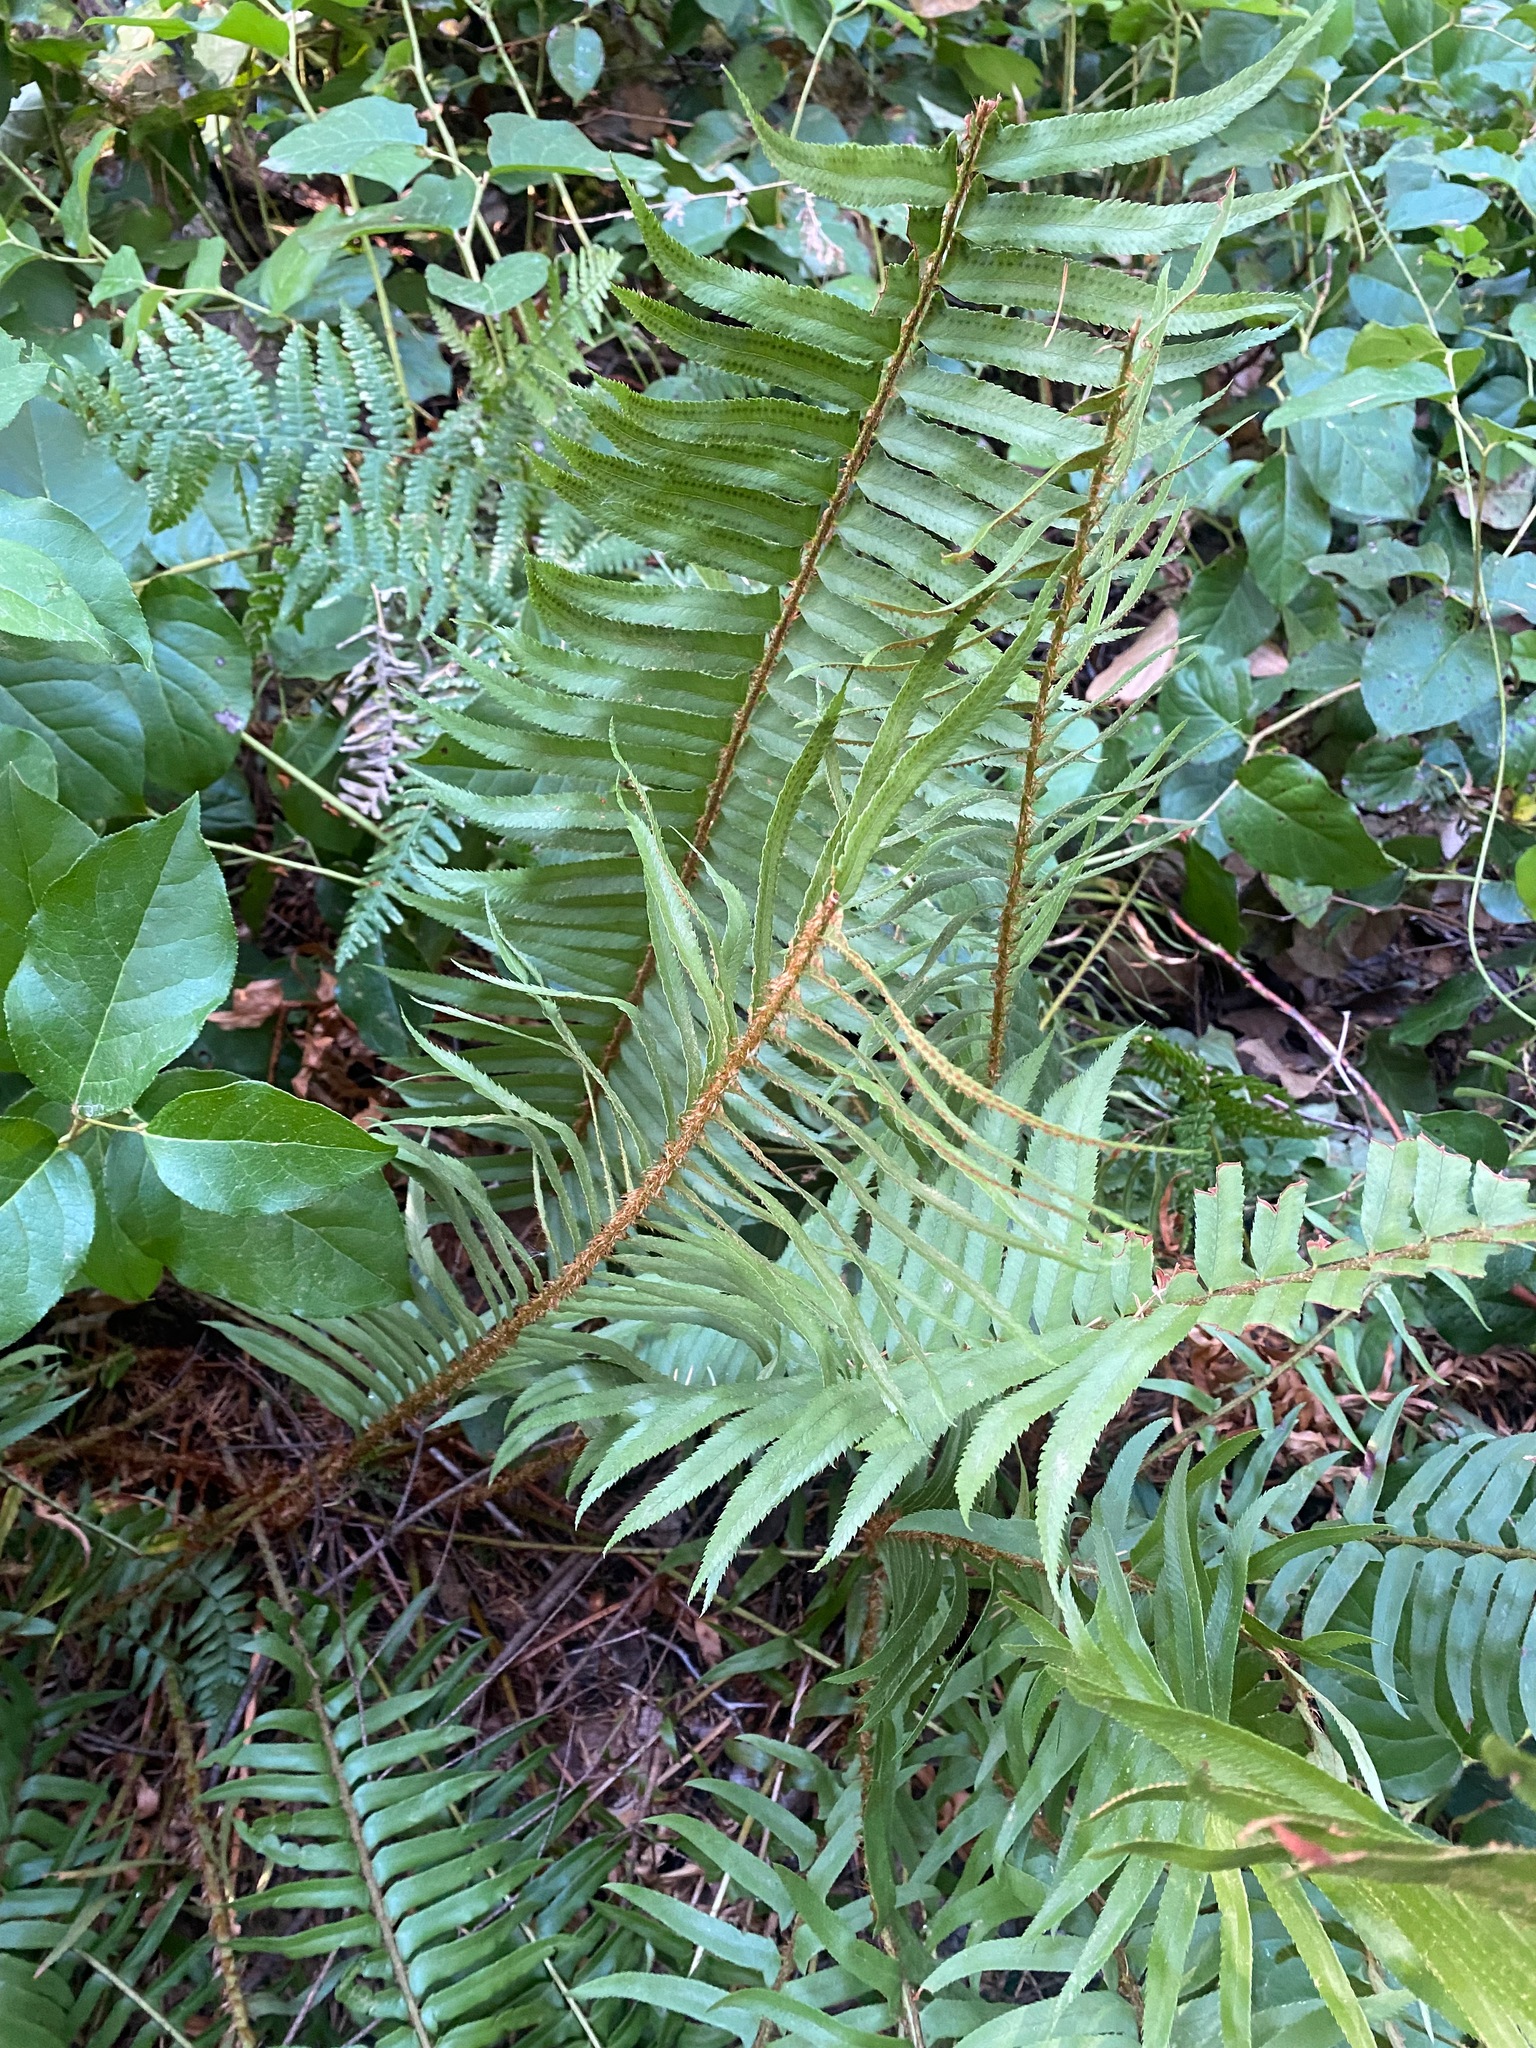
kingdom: Plantae
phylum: Tracheophyta
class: Polypodiopsida
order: Polypodiales
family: Dryopteridaceae
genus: Polystichum
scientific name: Polystichum munitum
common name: Western sword-fern
